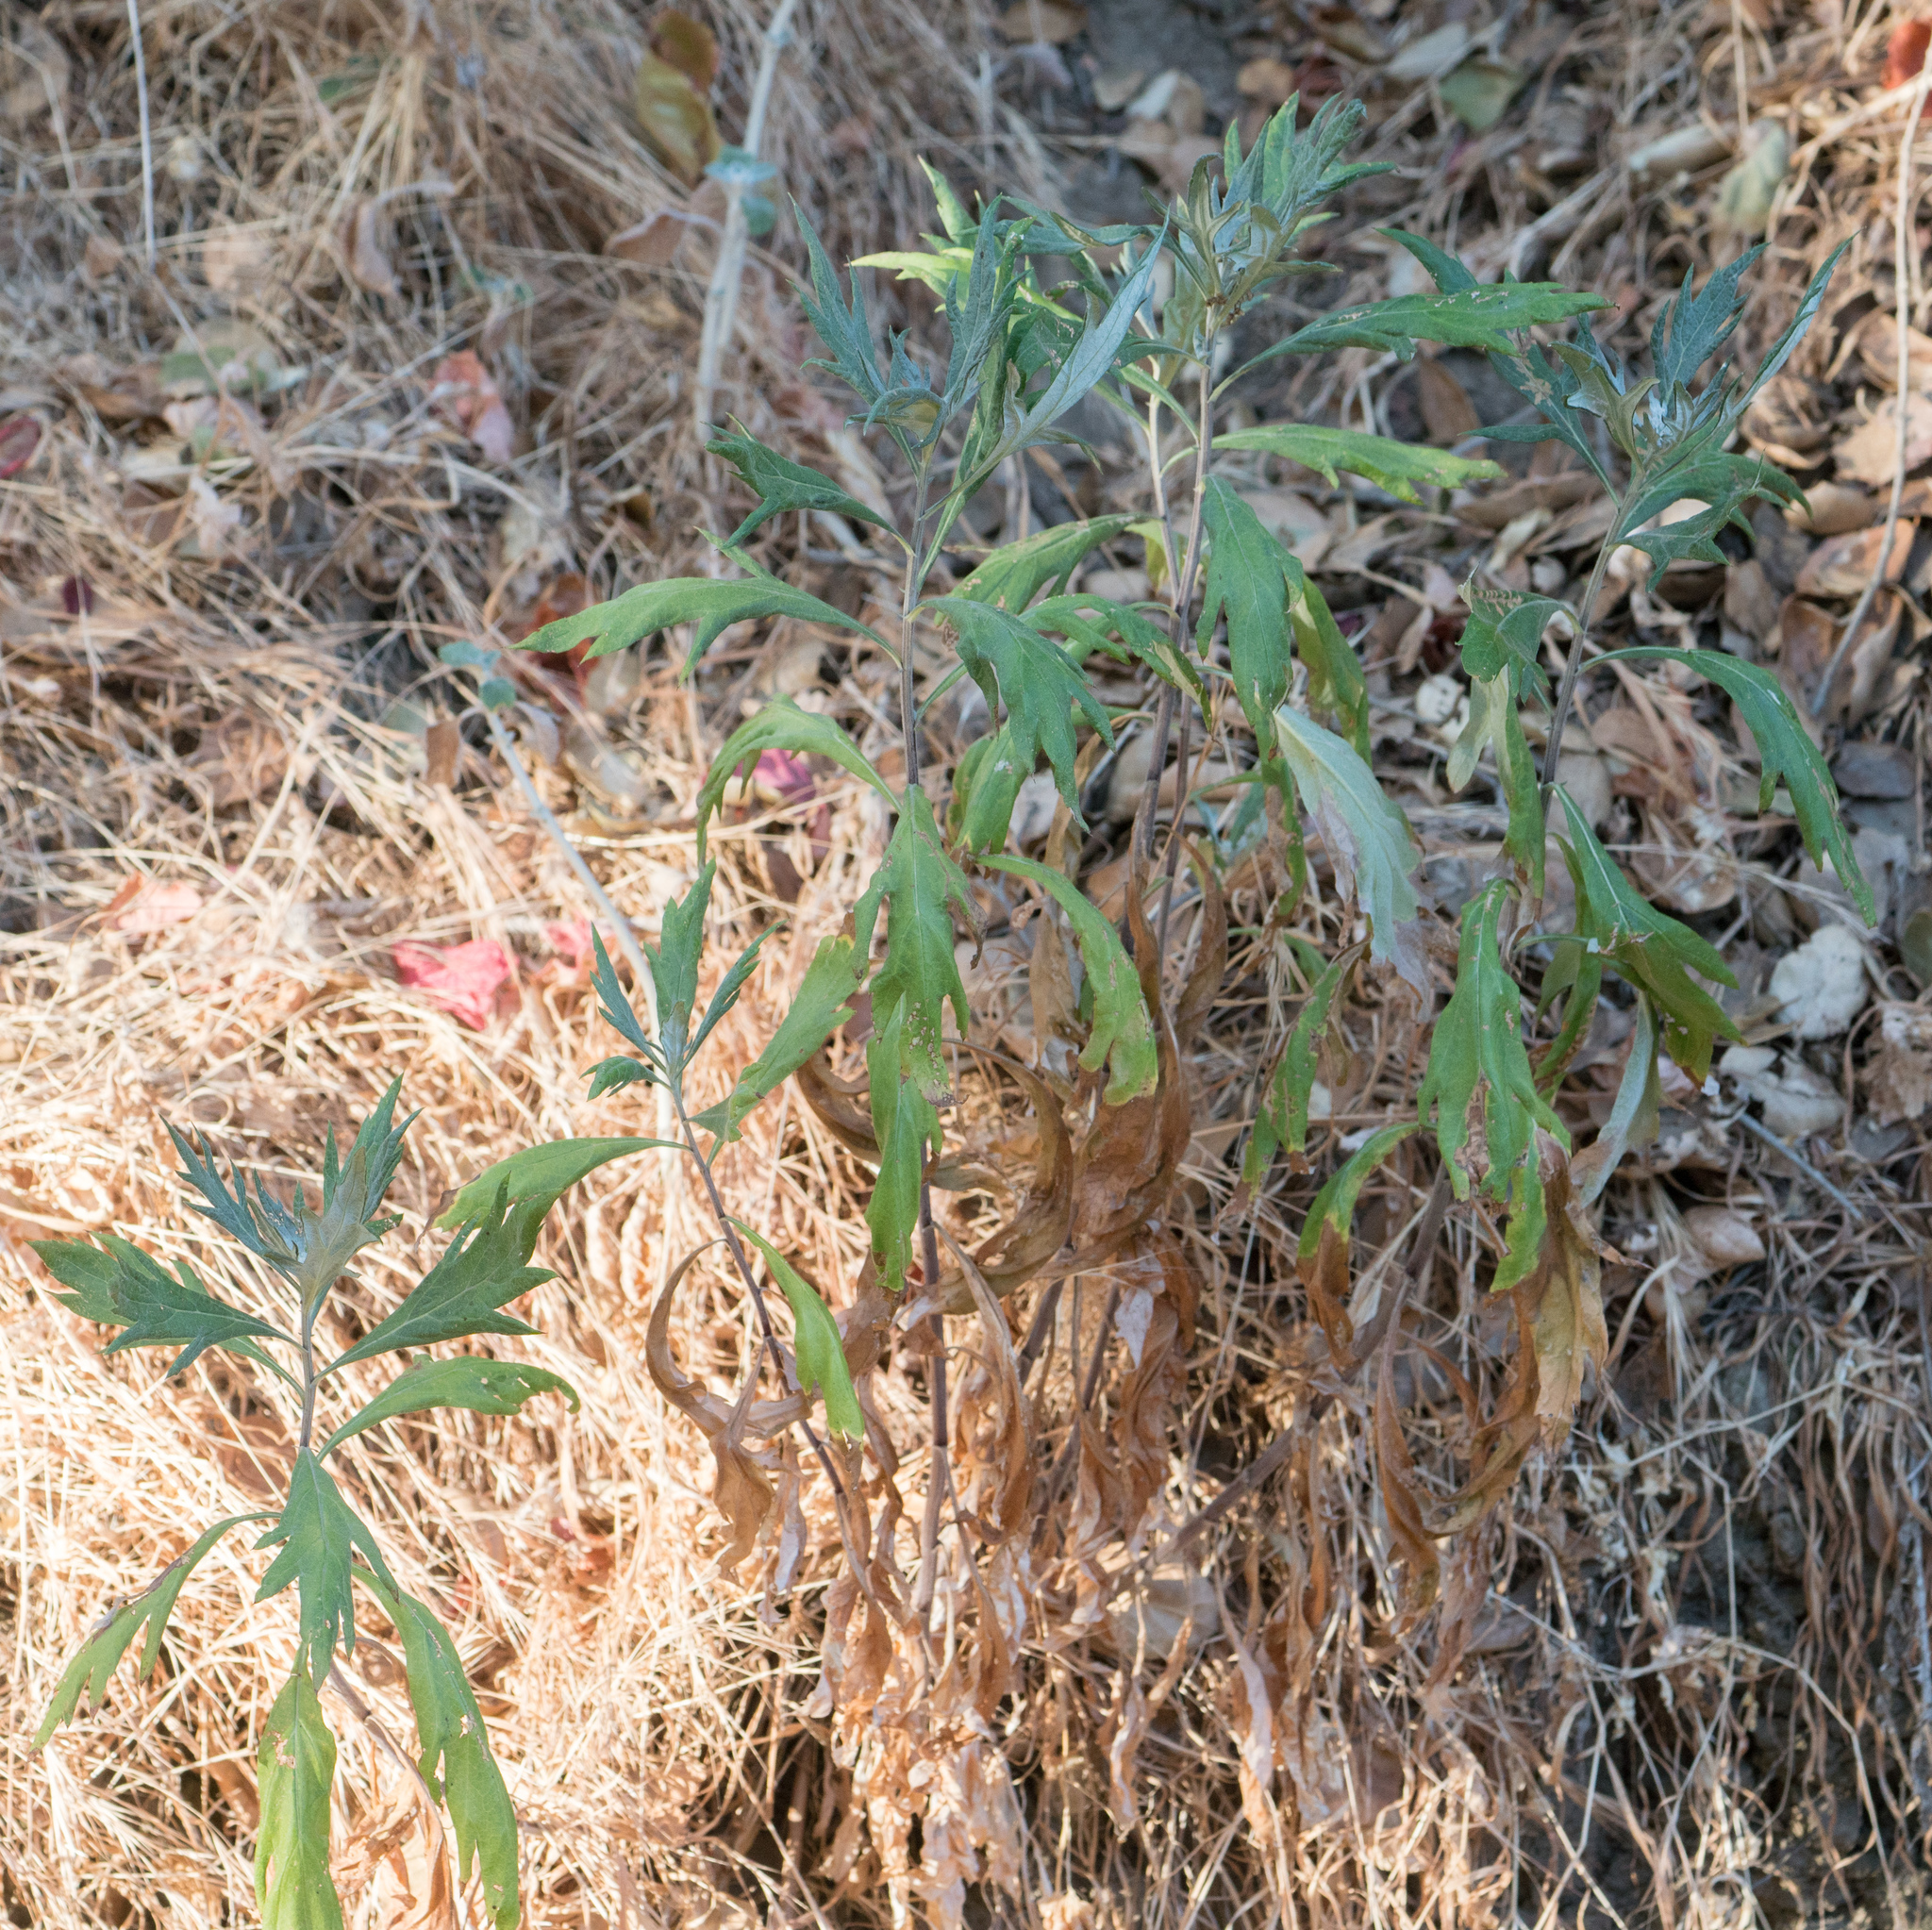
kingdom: Plantae
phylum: Tracheophyta
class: Magnoliopsida
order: Asterales
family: Asteraceae
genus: Artemisia
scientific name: Artemisia douglasiana
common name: Northwest mugwort
